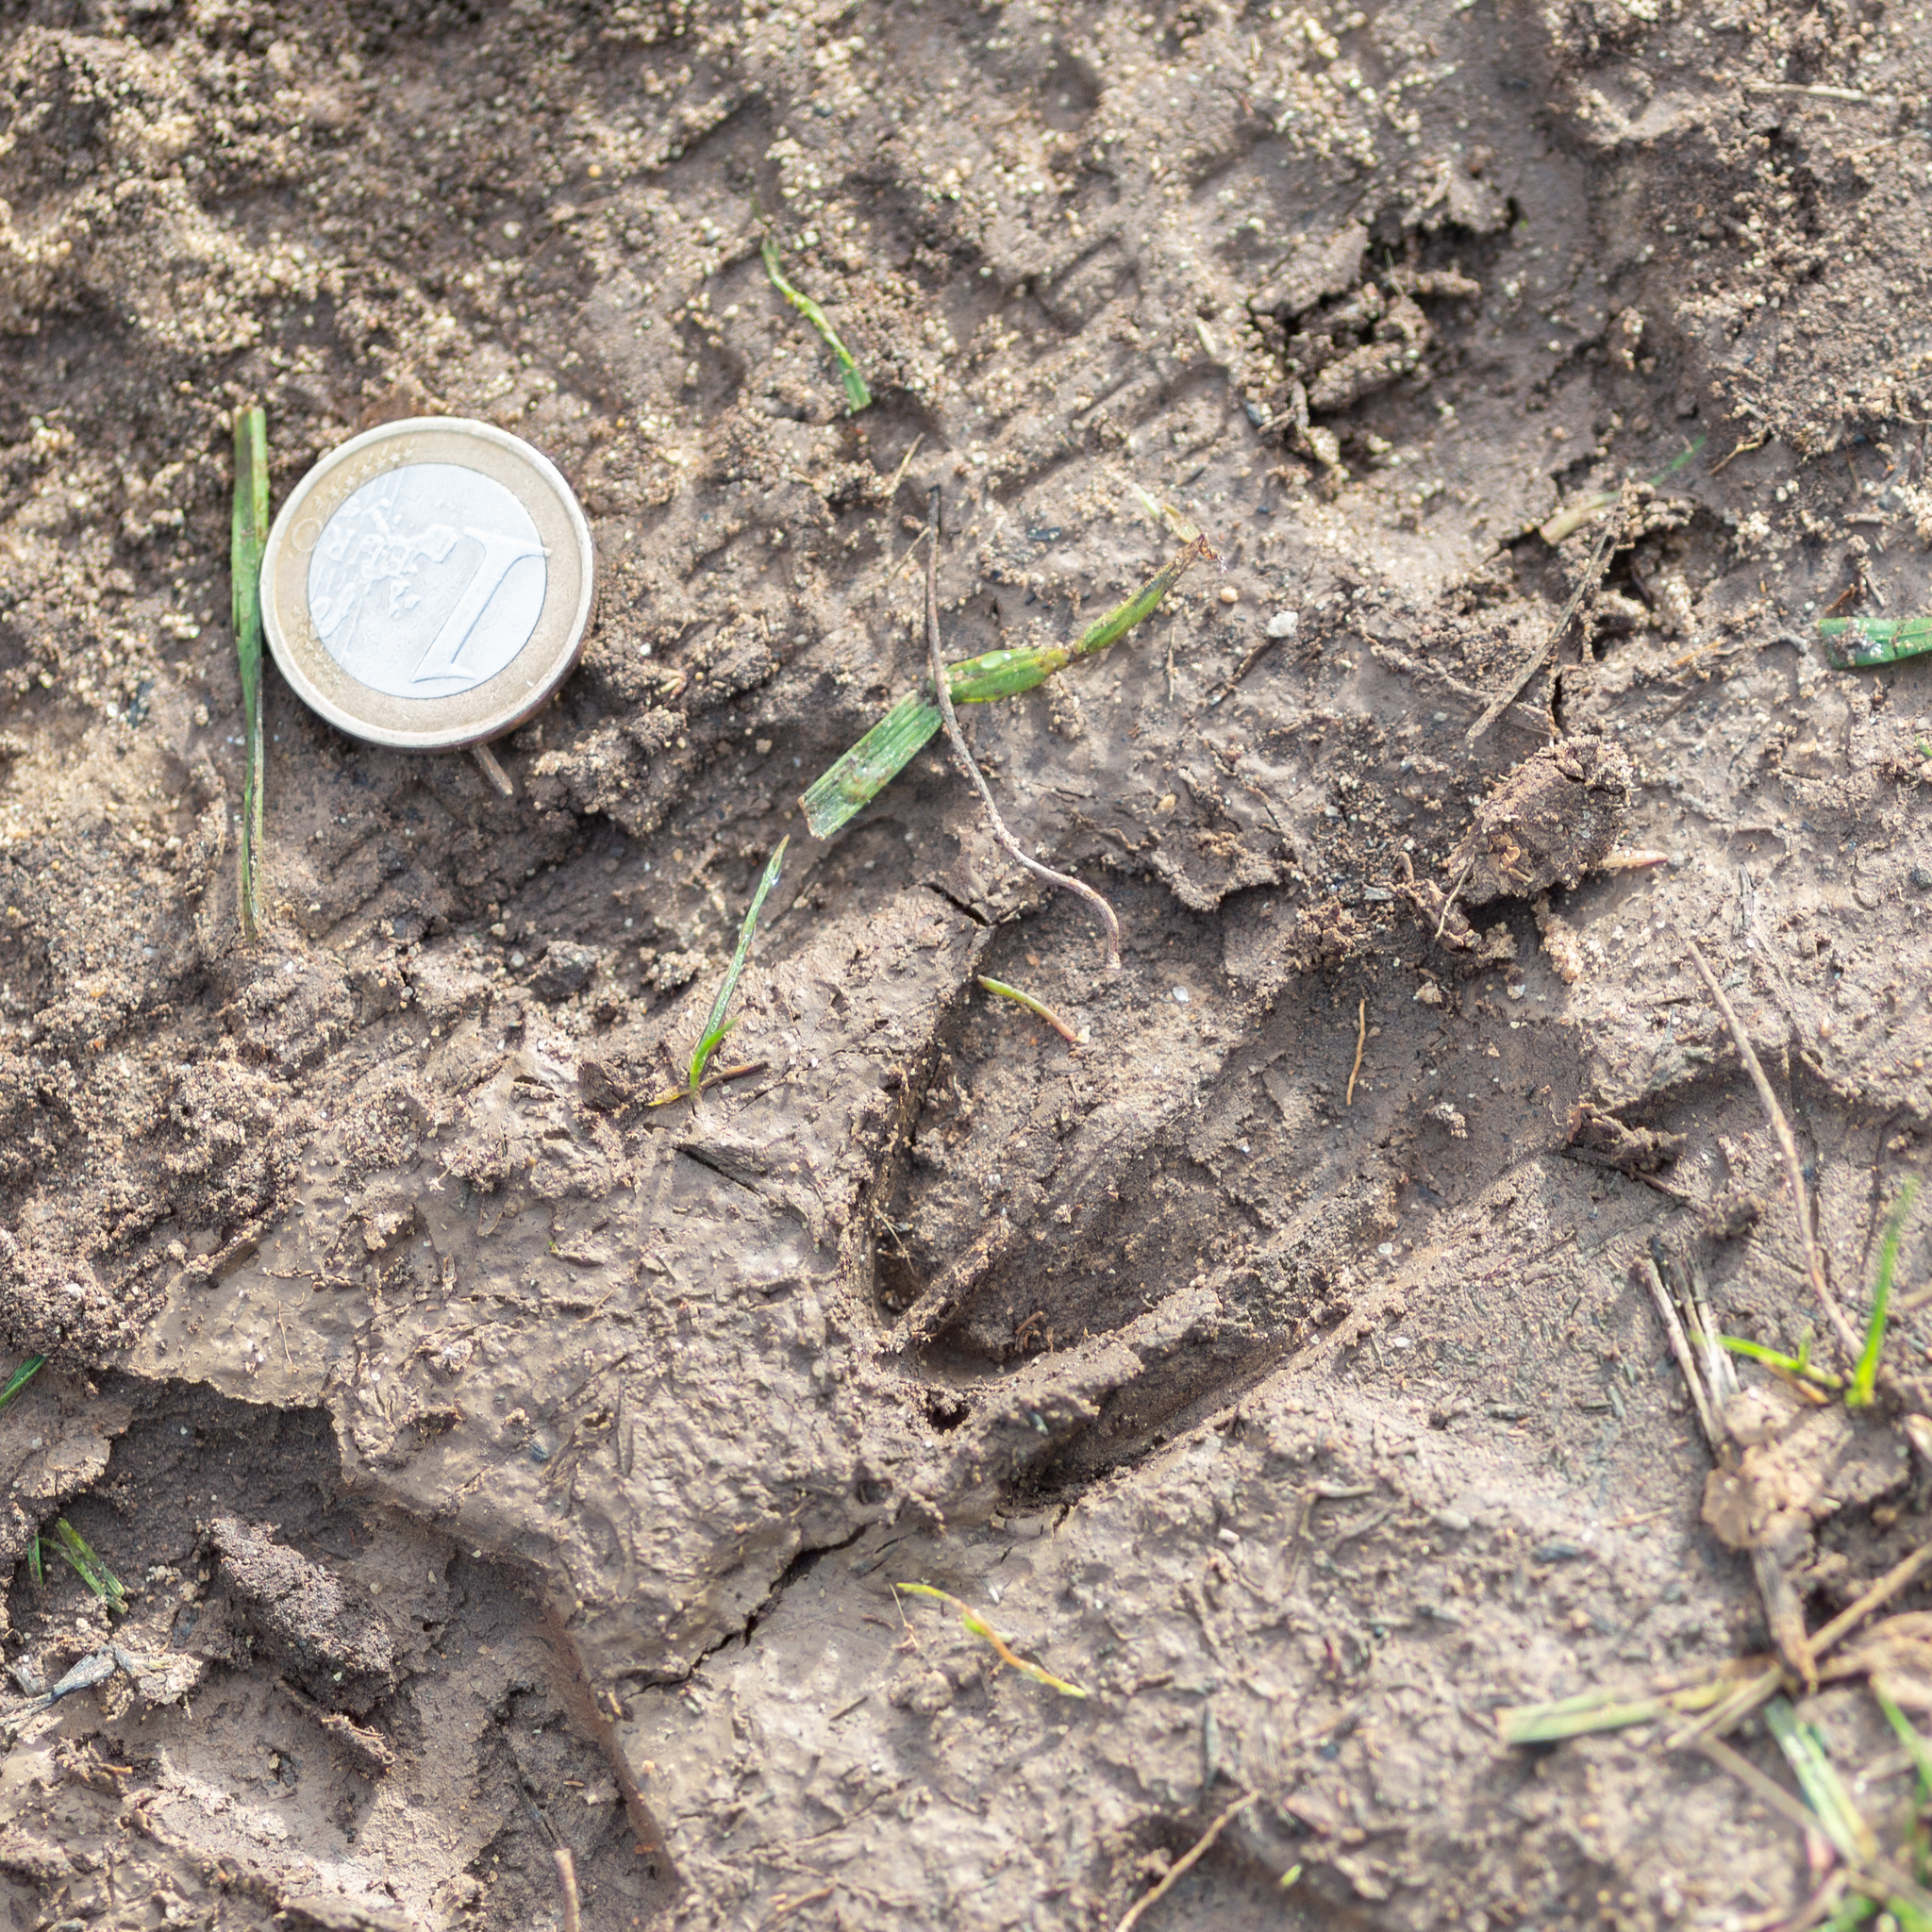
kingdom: Animalia
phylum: Chordata
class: Mammalia
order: Artiodactyla
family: Cervidae
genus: Capreolus
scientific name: Capreolus capreolus
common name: Western roe deer
